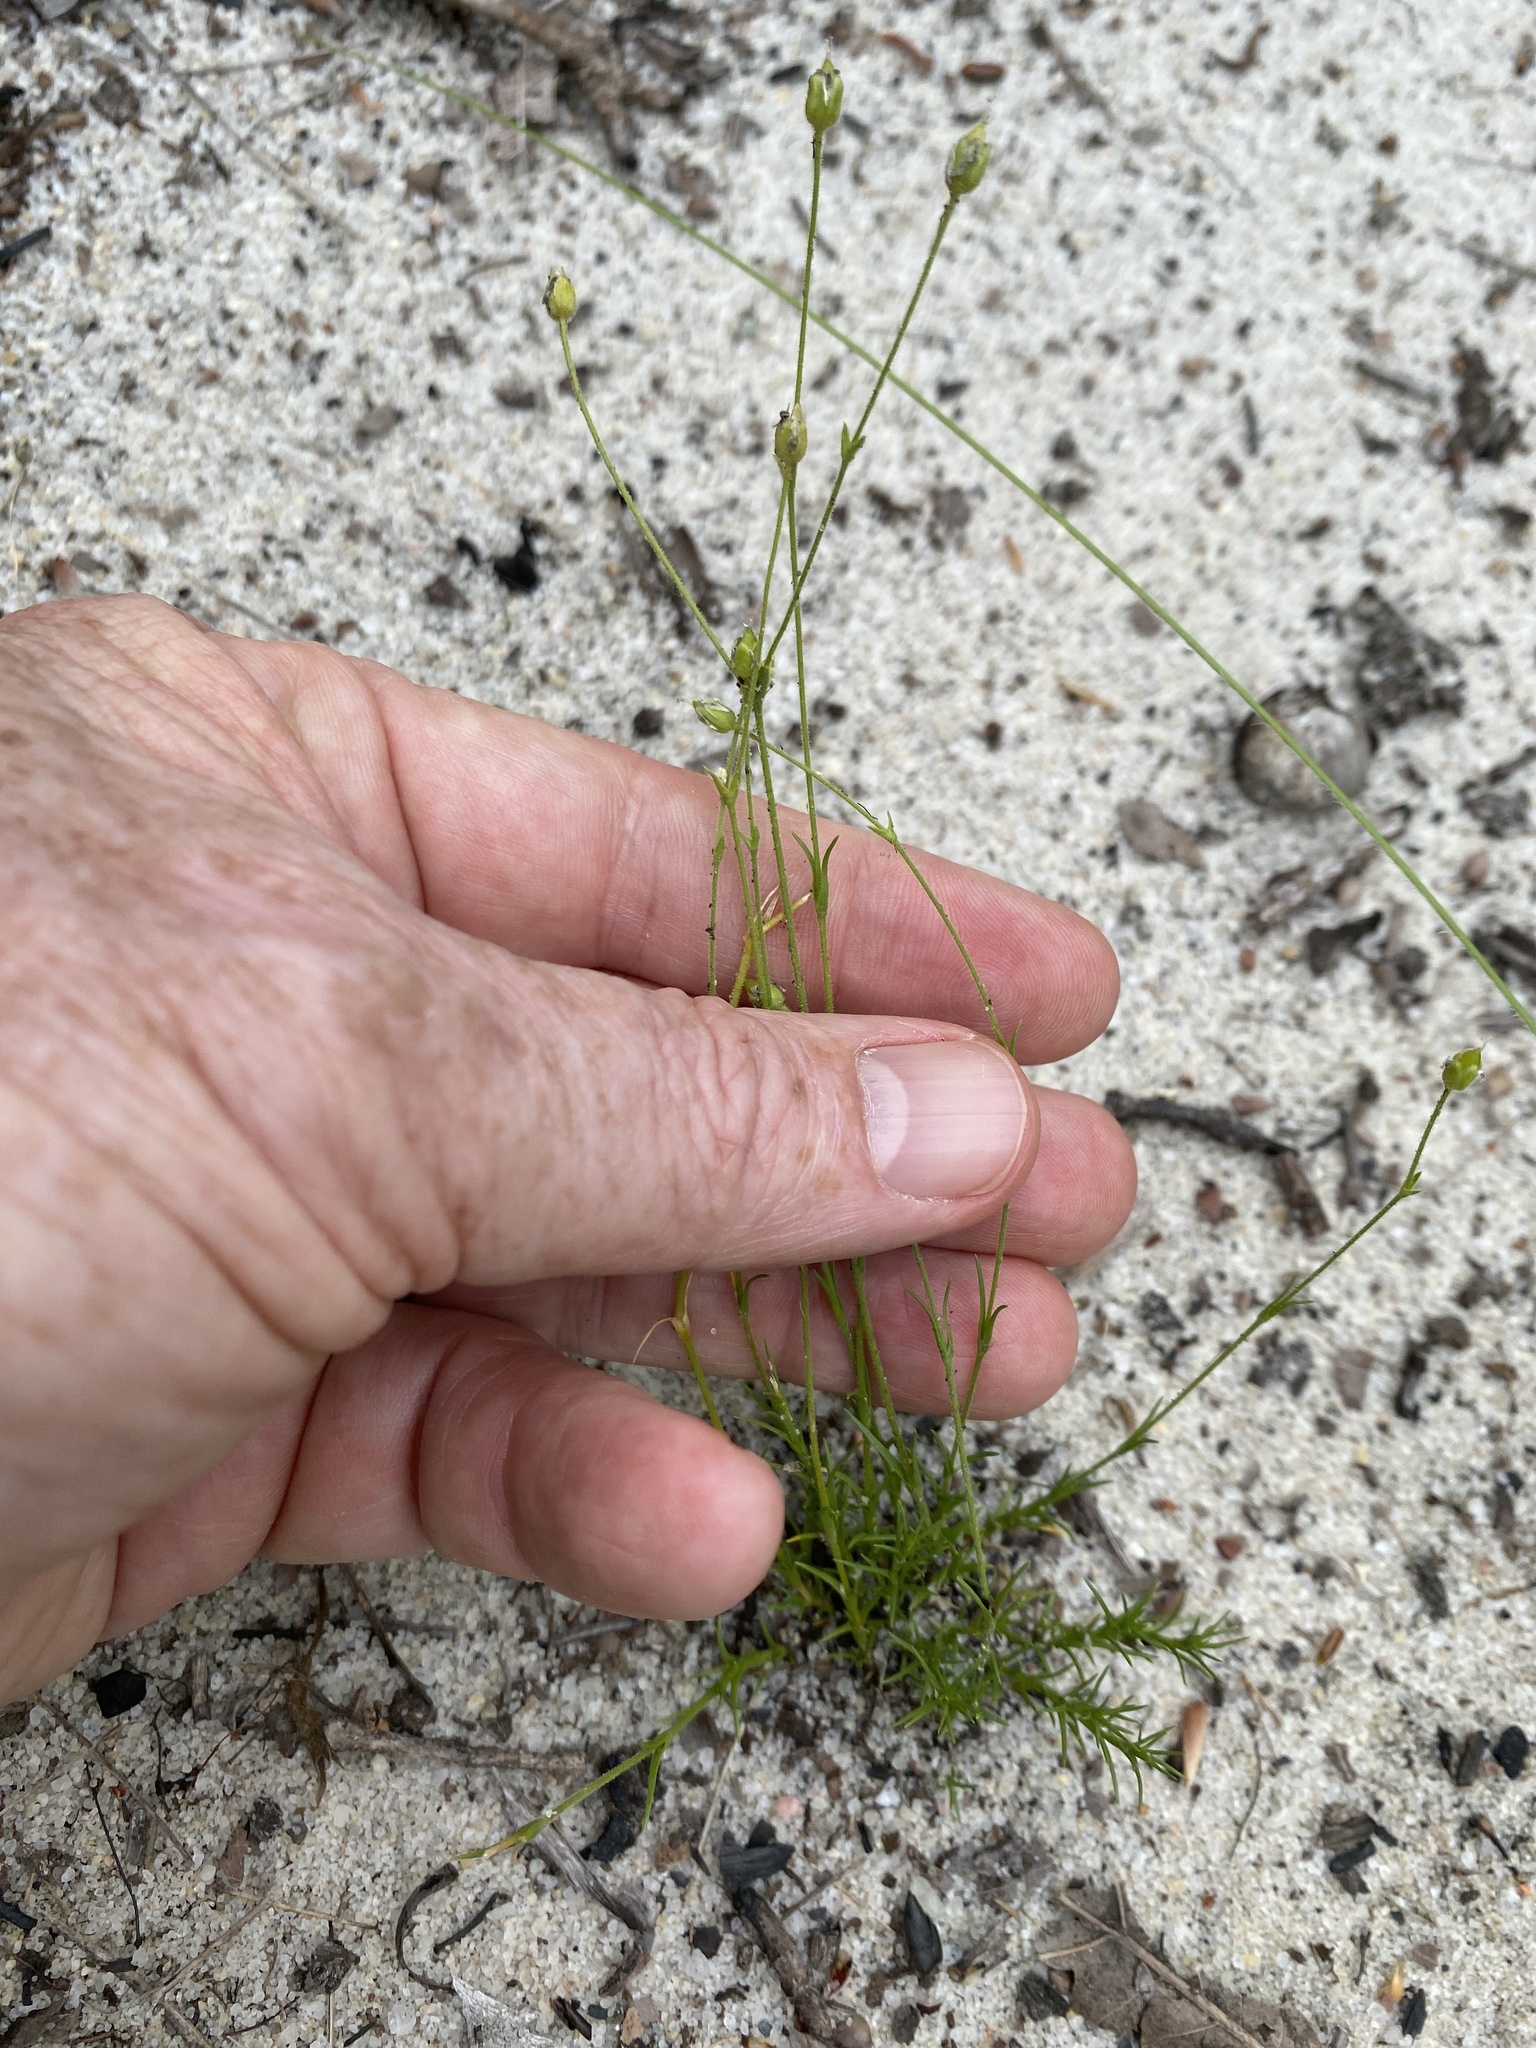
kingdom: Plantae
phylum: Tracheophyta
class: Magnoliopsida
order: Caryophyllales
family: Caryophyllaceae
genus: Geocarpon
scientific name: Geocarpon carolinianum
